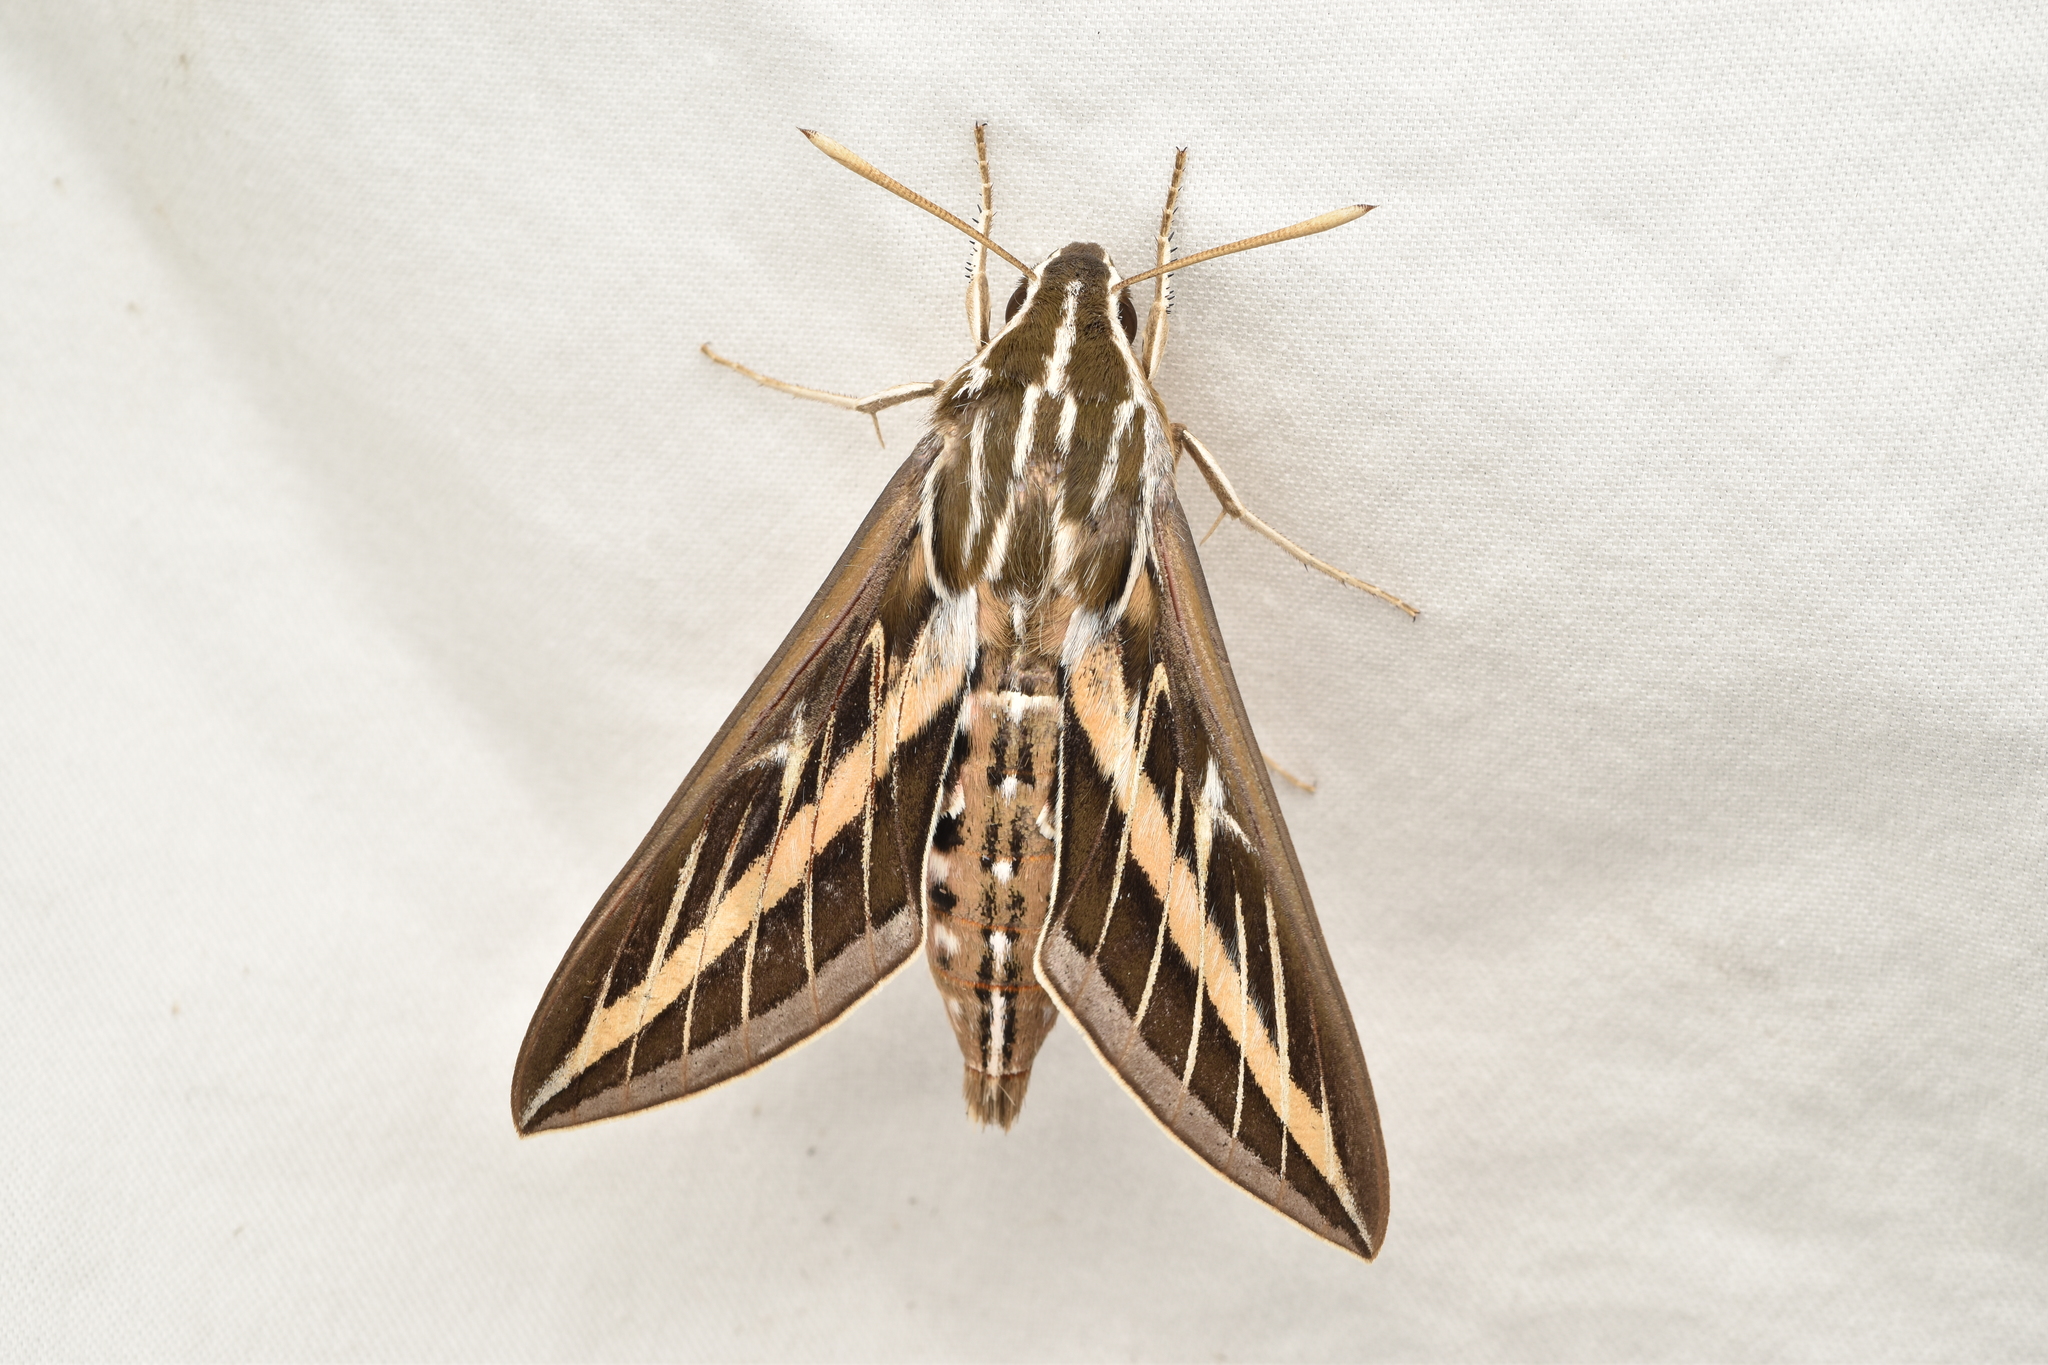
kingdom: Animalia
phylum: Arthropoda
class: Insecta
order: Lepidoptera
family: Sphingidae
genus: Hyles
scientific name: Hyles lineata
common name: White-lined sphinx
